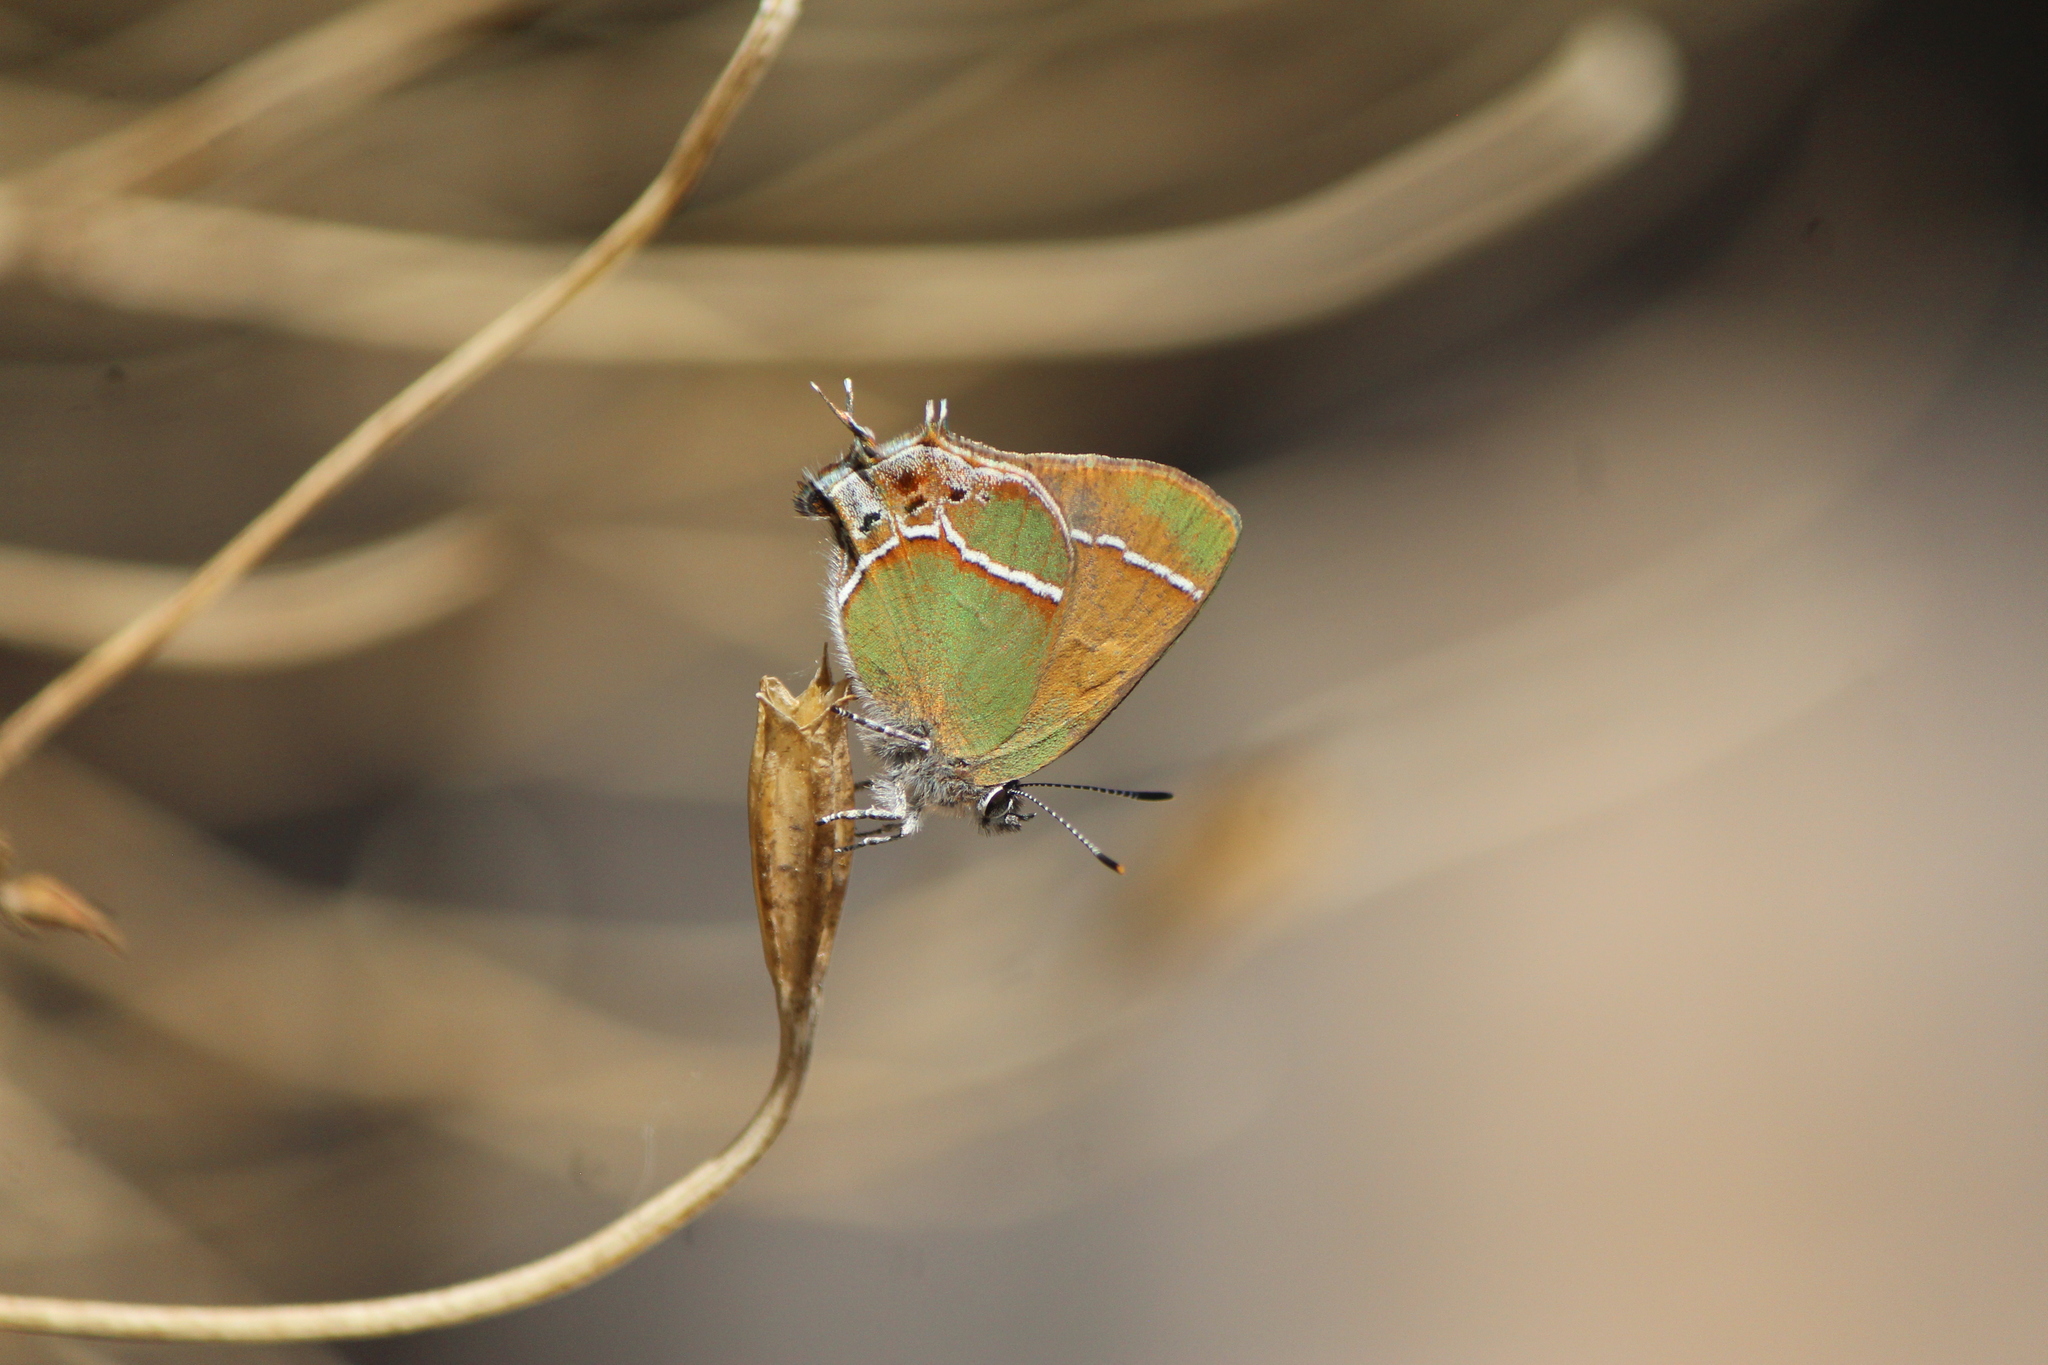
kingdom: Animalia
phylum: Arthropoda
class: Insecta
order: Lepidoptera
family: Lycaenidae
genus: Xamia
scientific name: Xamia xami
